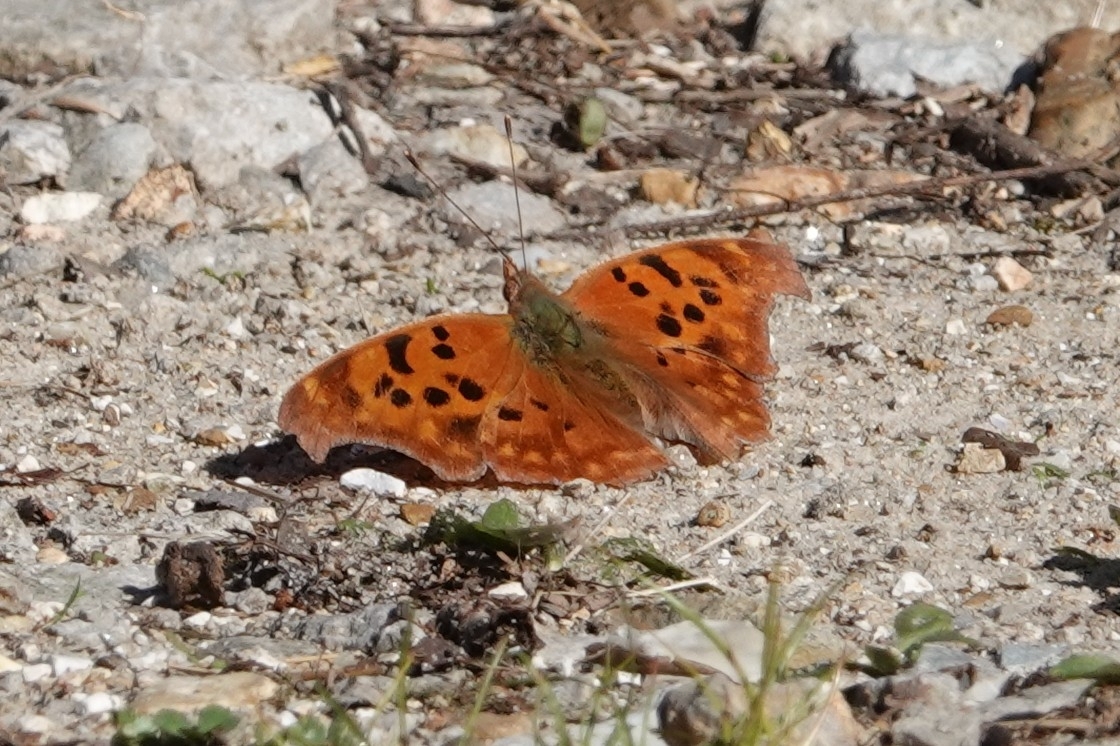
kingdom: Animalia
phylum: Arthropoda
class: Insecta
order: Lepidoptera
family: Nymphalidae
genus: Polygonia
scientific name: Polygonia interrogationis
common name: Question mark
